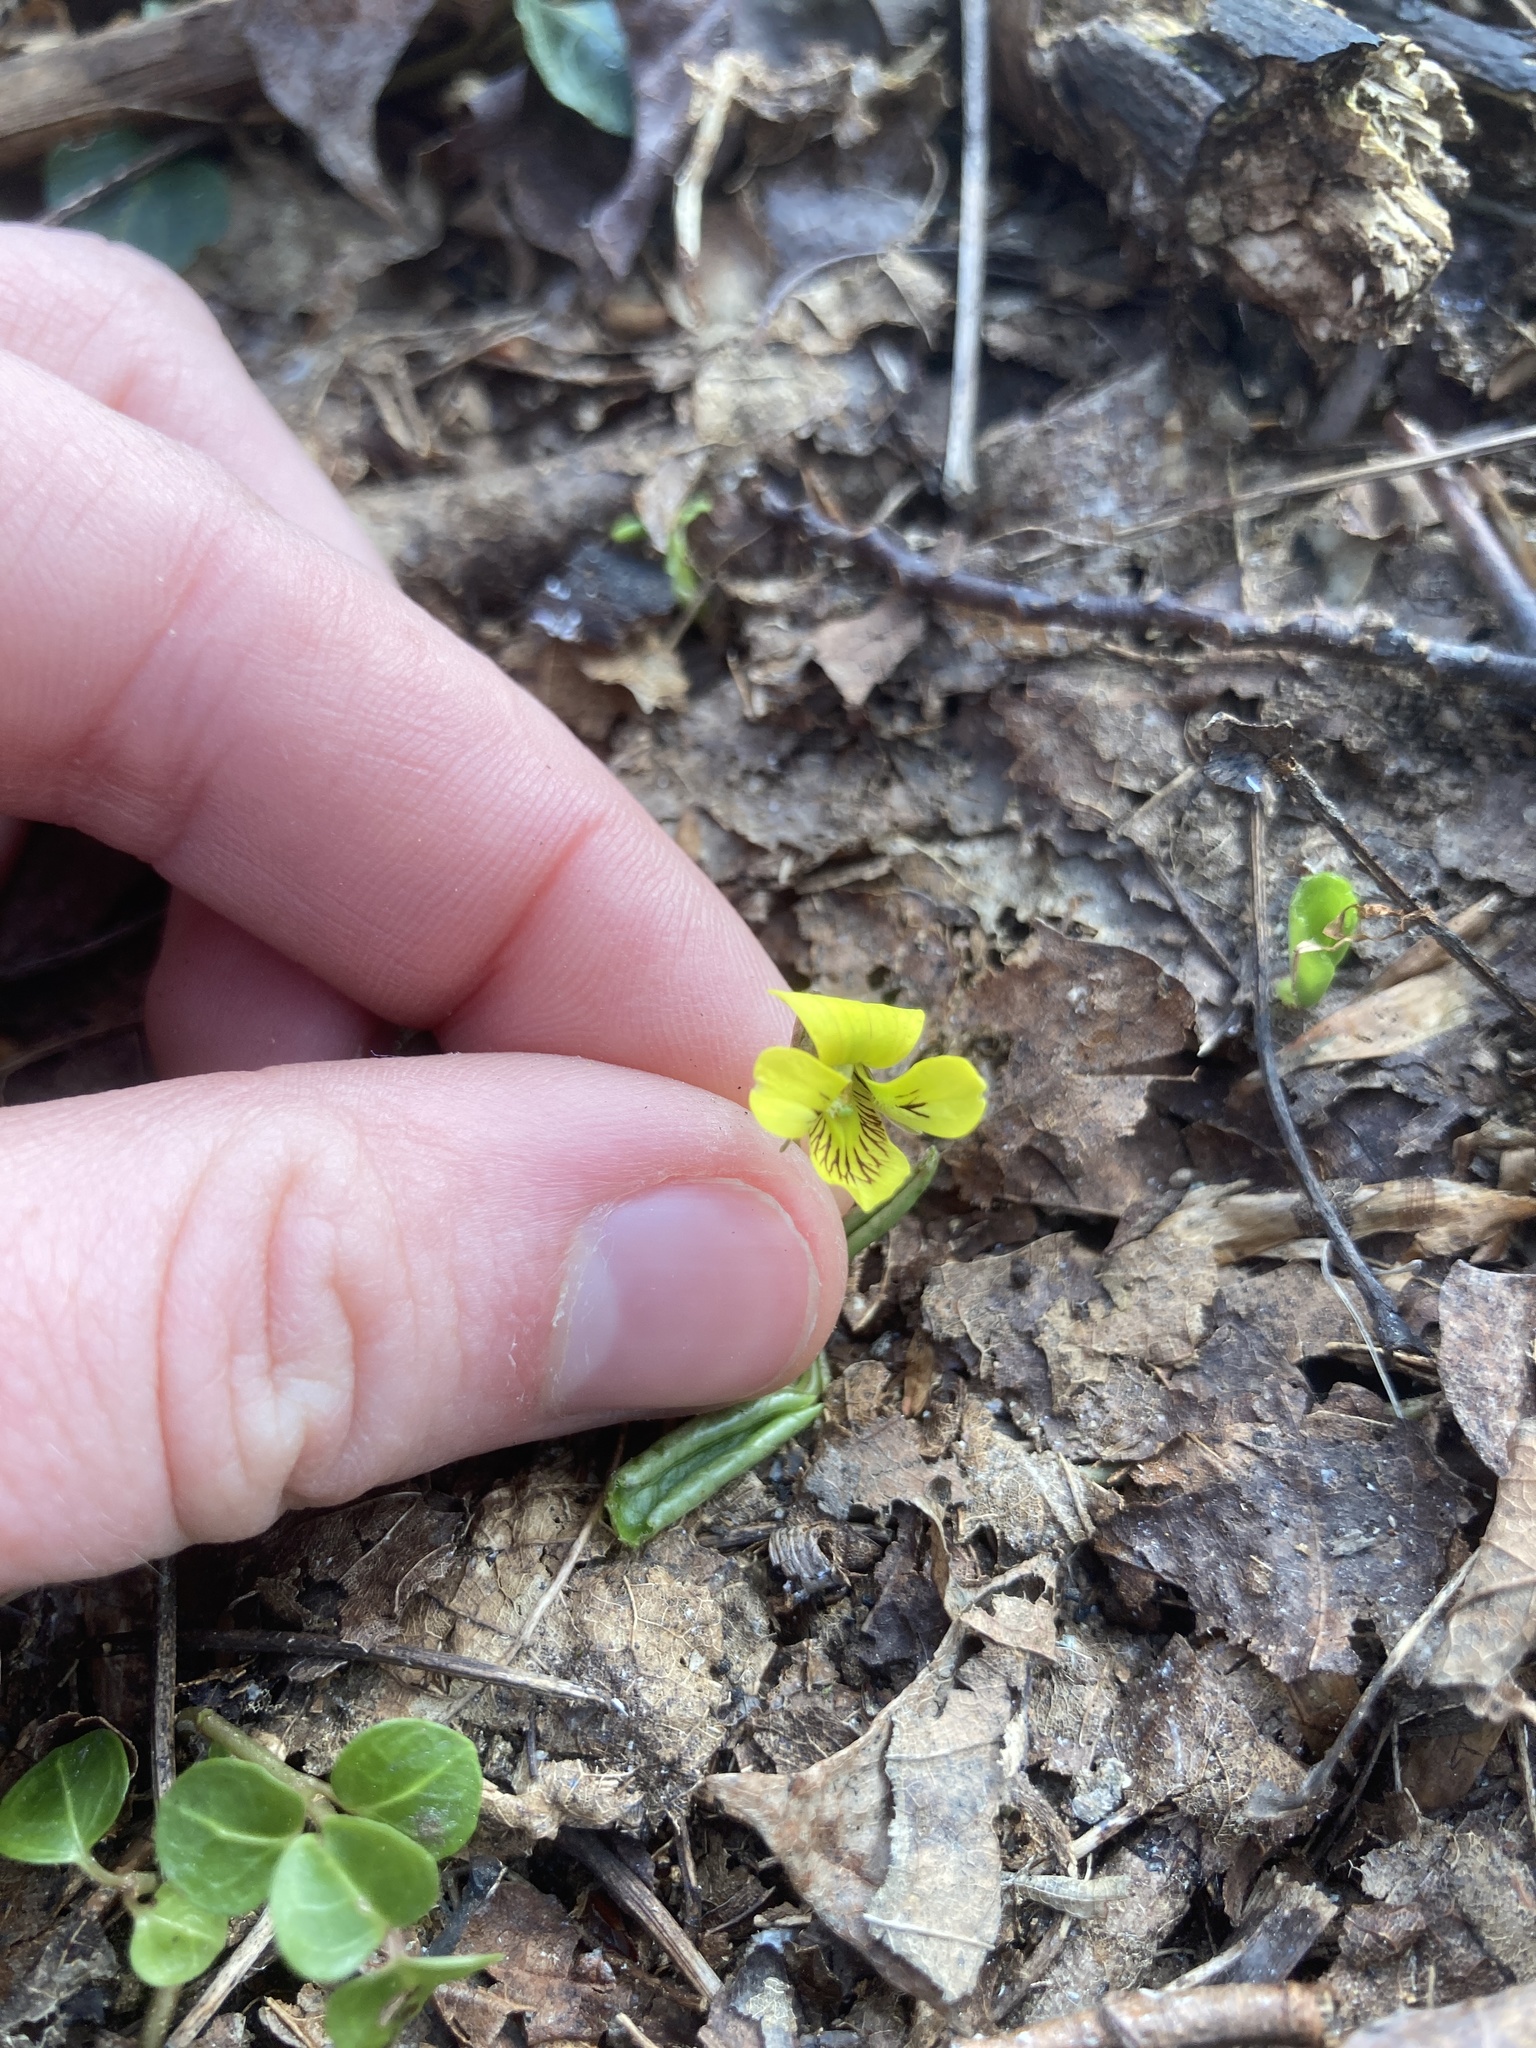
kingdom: Plantae
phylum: Tracheophyta
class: Magnoliopsida
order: Malpighiales
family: Violaceae
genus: Viola
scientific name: Viola rotundifolia
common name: Early yellow violet
